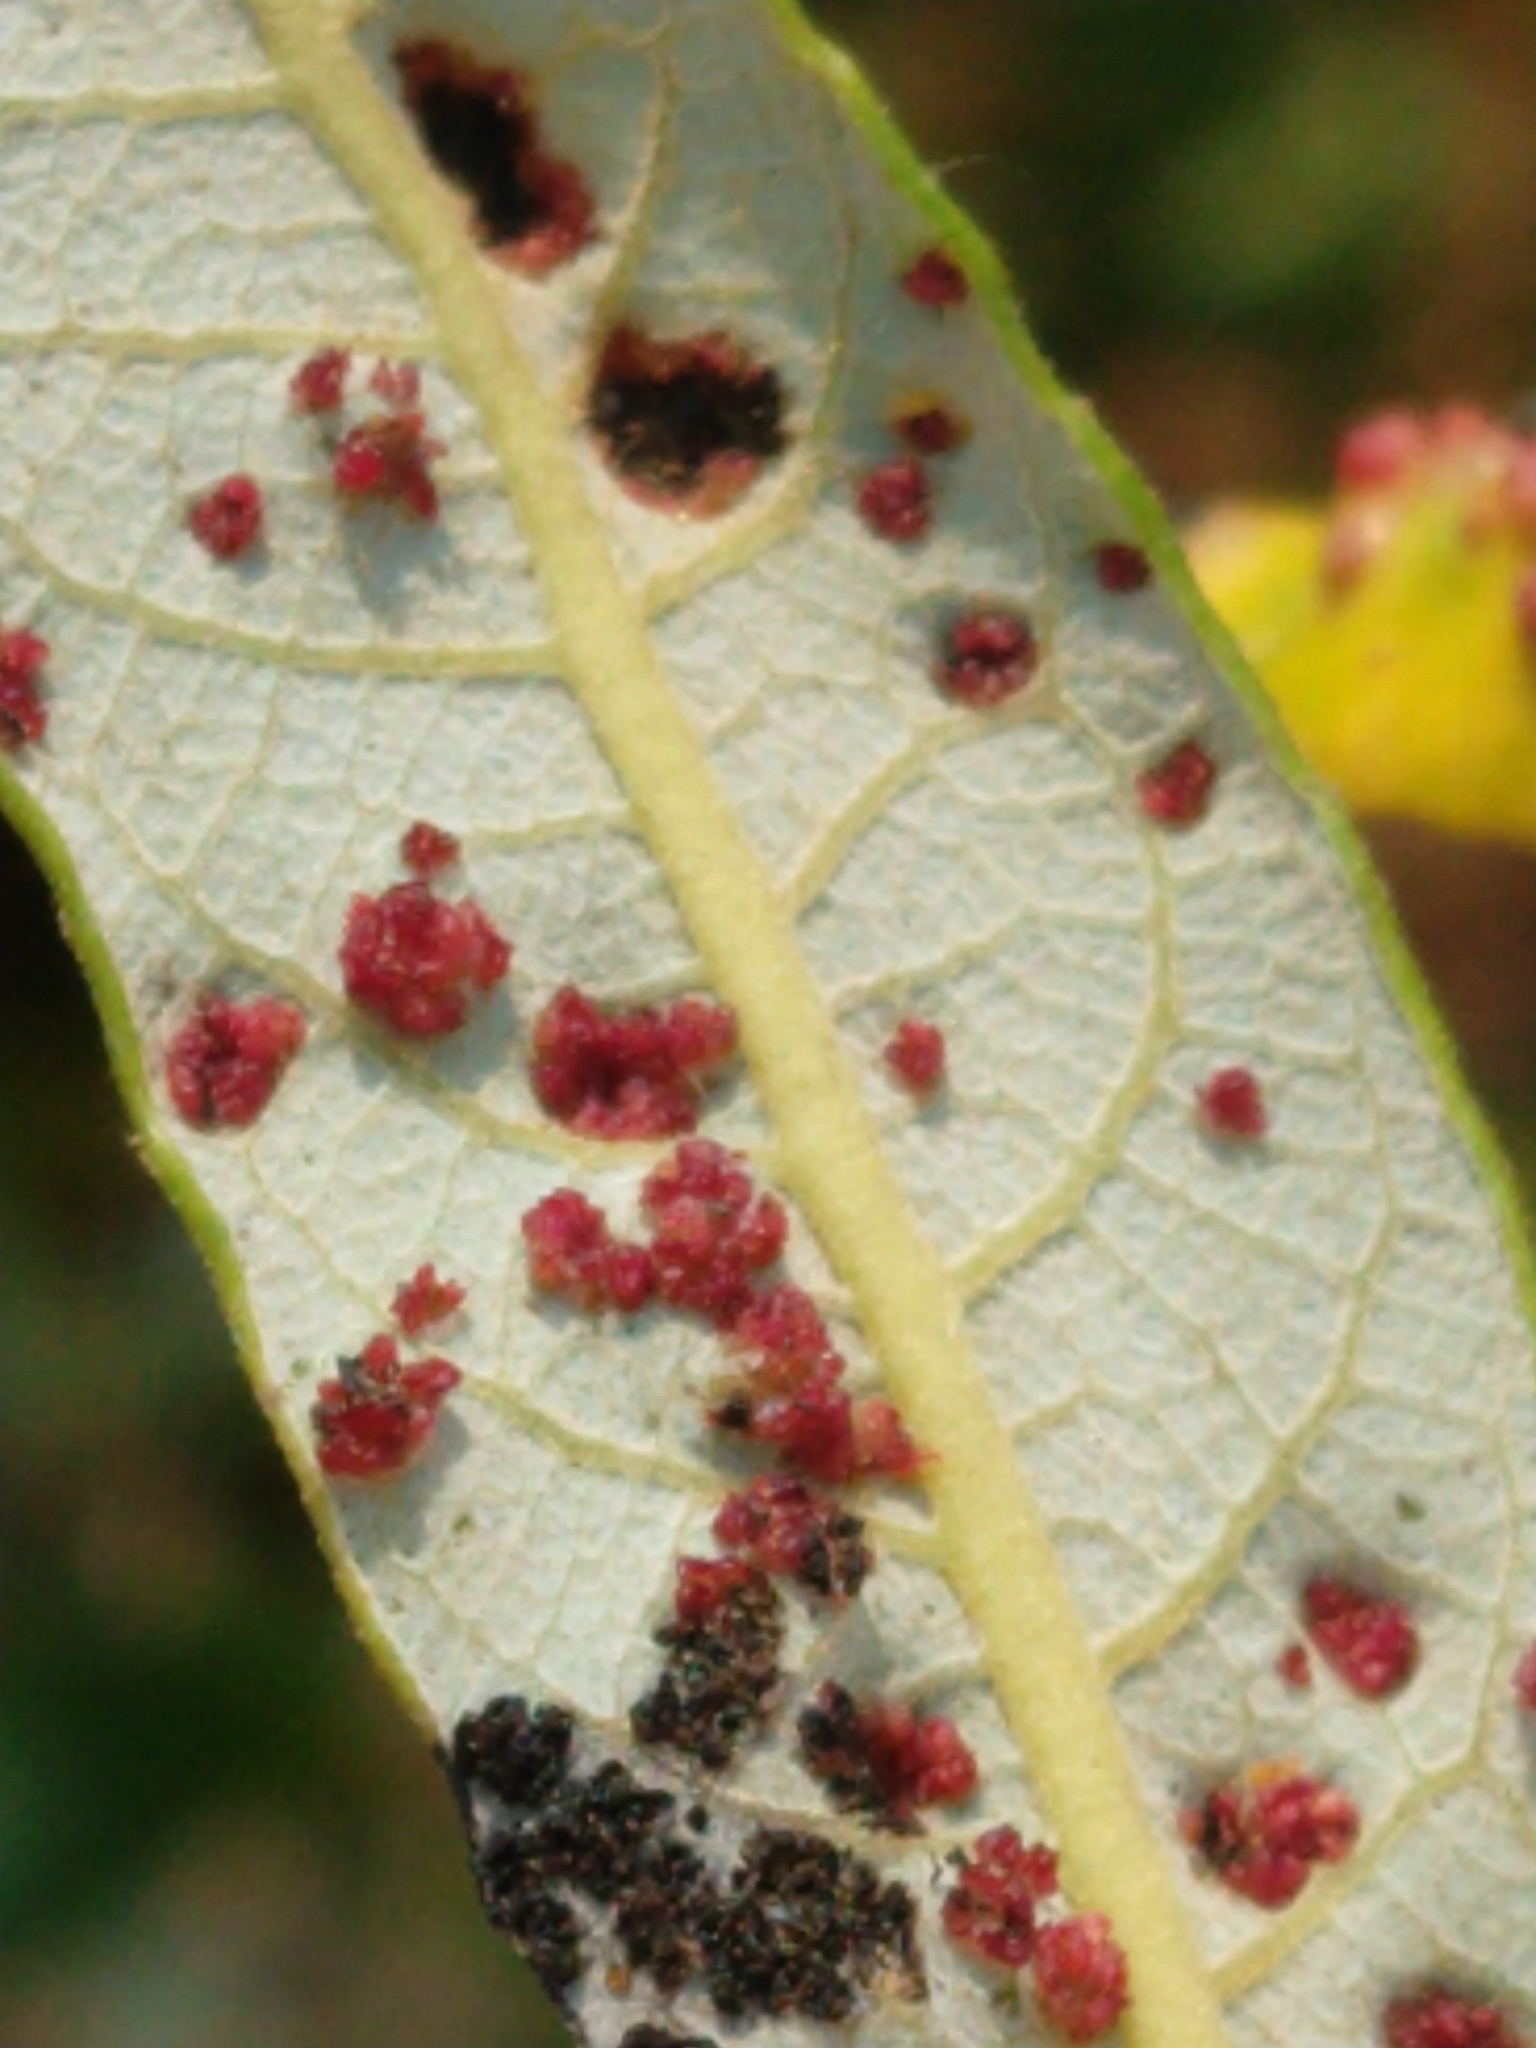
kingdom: Animalia
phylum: Arthropoda
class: Arachnida
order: Trombidiformes
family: Eriophyidae
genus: Aculus
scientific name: Aculus tetanothrix
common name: Willow bead gall mite
